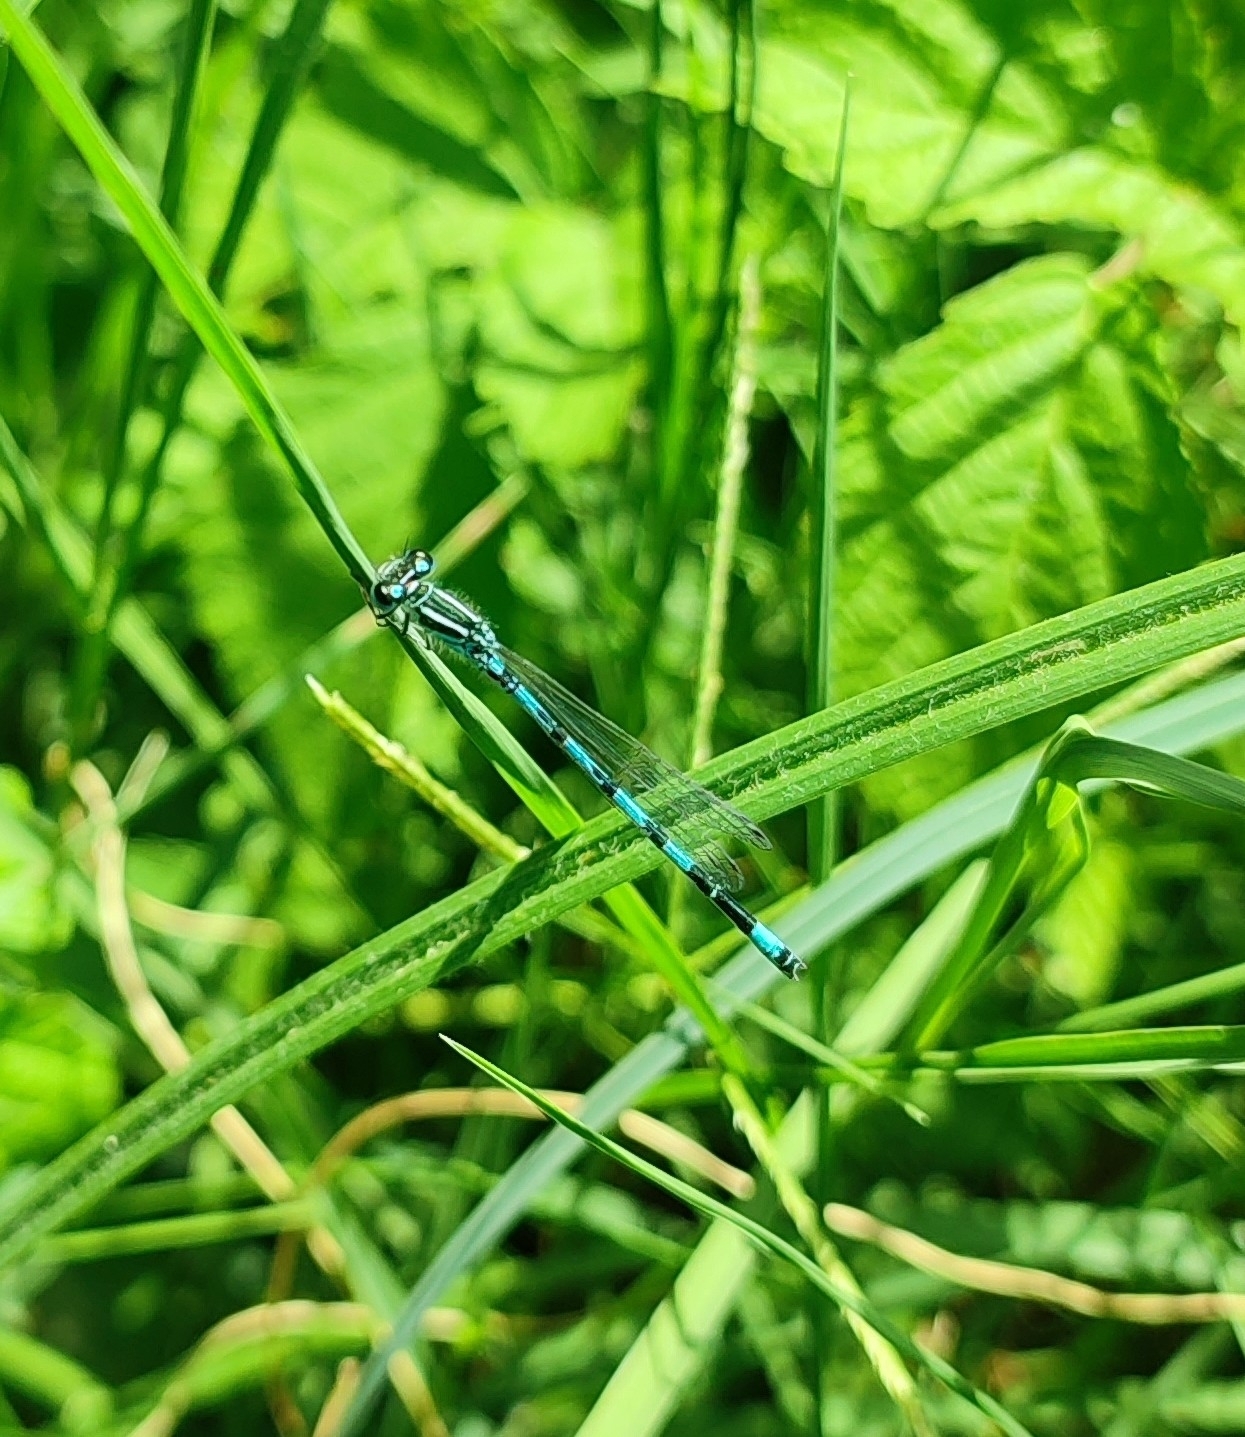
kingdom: Animalia
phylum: Arthropoda
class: Insecta
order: Odonata
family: Coenagrionidae
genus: Coenagrion
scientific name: Coenagrion mercuriale
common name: Southern damselfly
